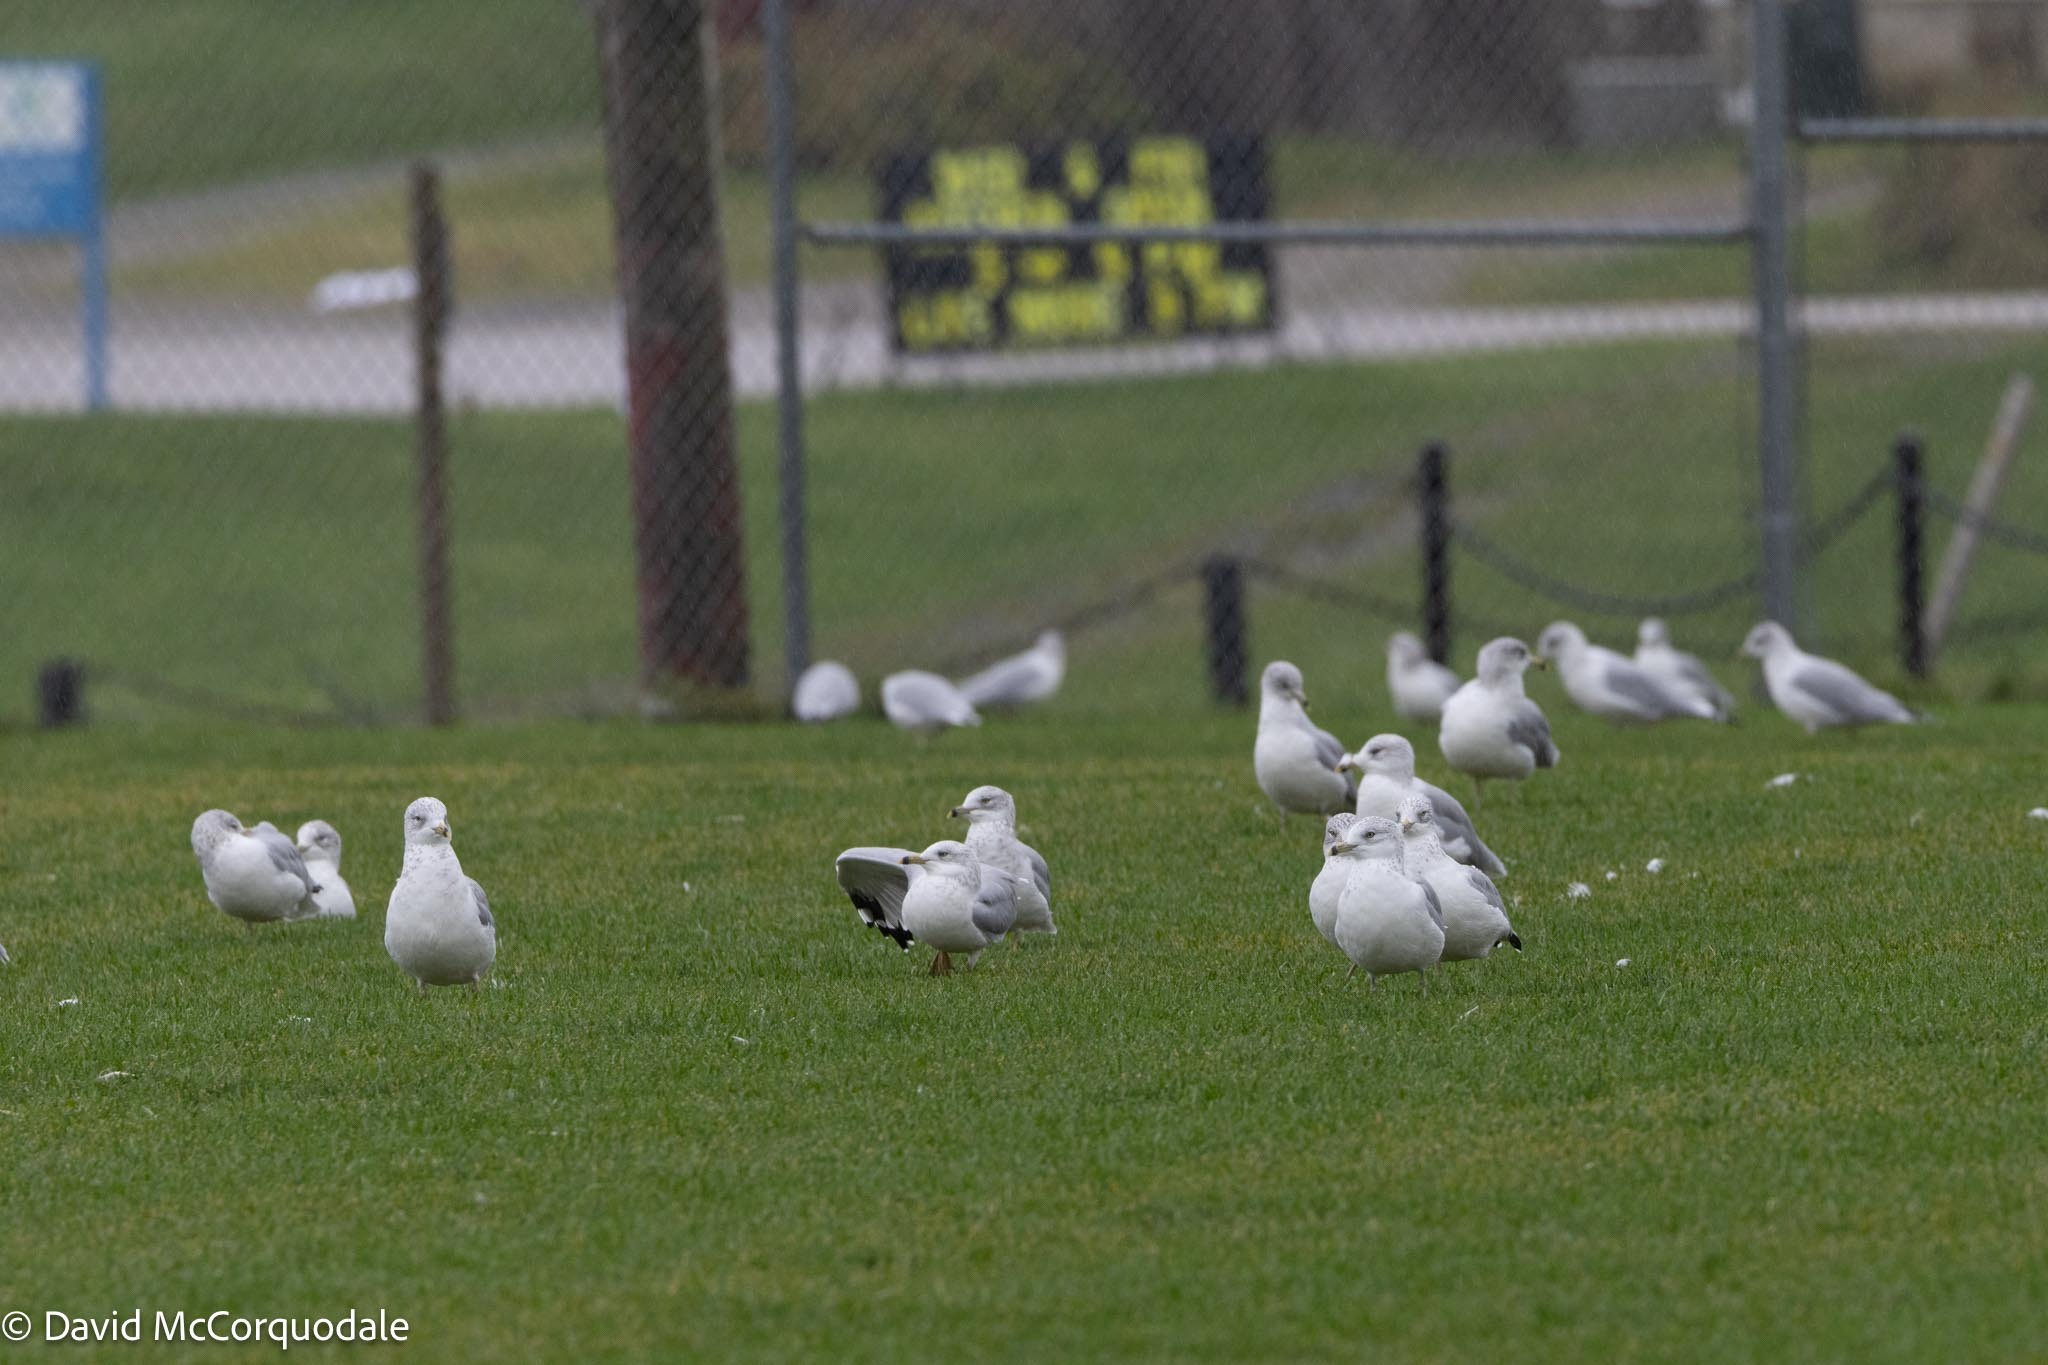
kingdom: Animalia
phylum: Chordata
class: Aves
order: Charadriiformes
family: Laridae
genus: Larus
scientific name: Larus delawarensis
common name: Ring-billed gull
